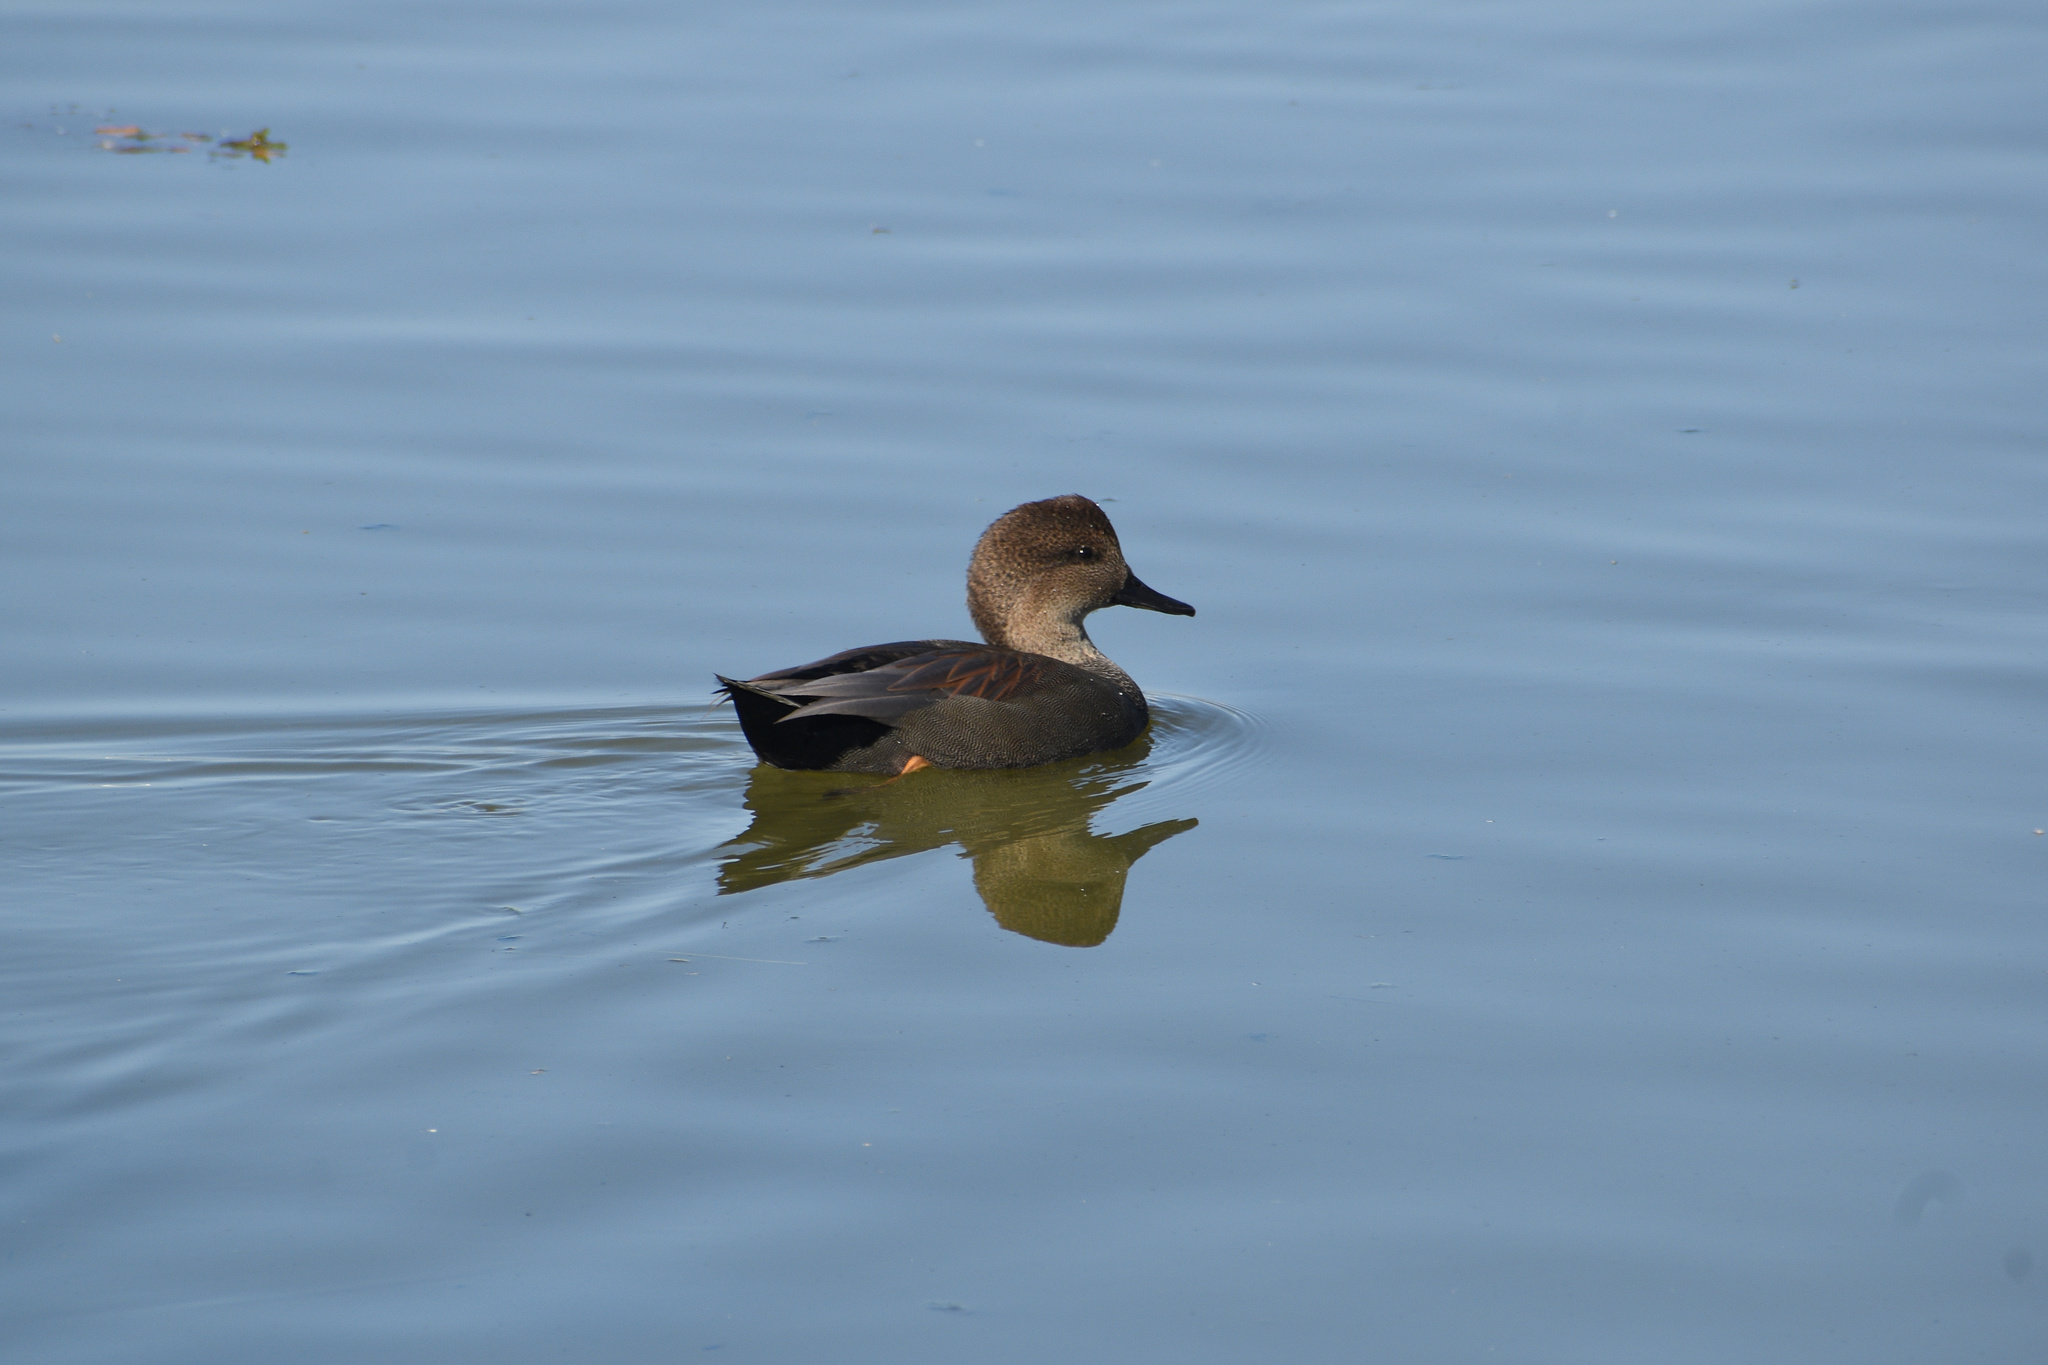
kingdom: Animalia
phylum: Chordata
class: Aves
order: Anseriformes
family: Anatidae
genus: Mareca
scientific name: Mareca strepera
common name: Gadwall
